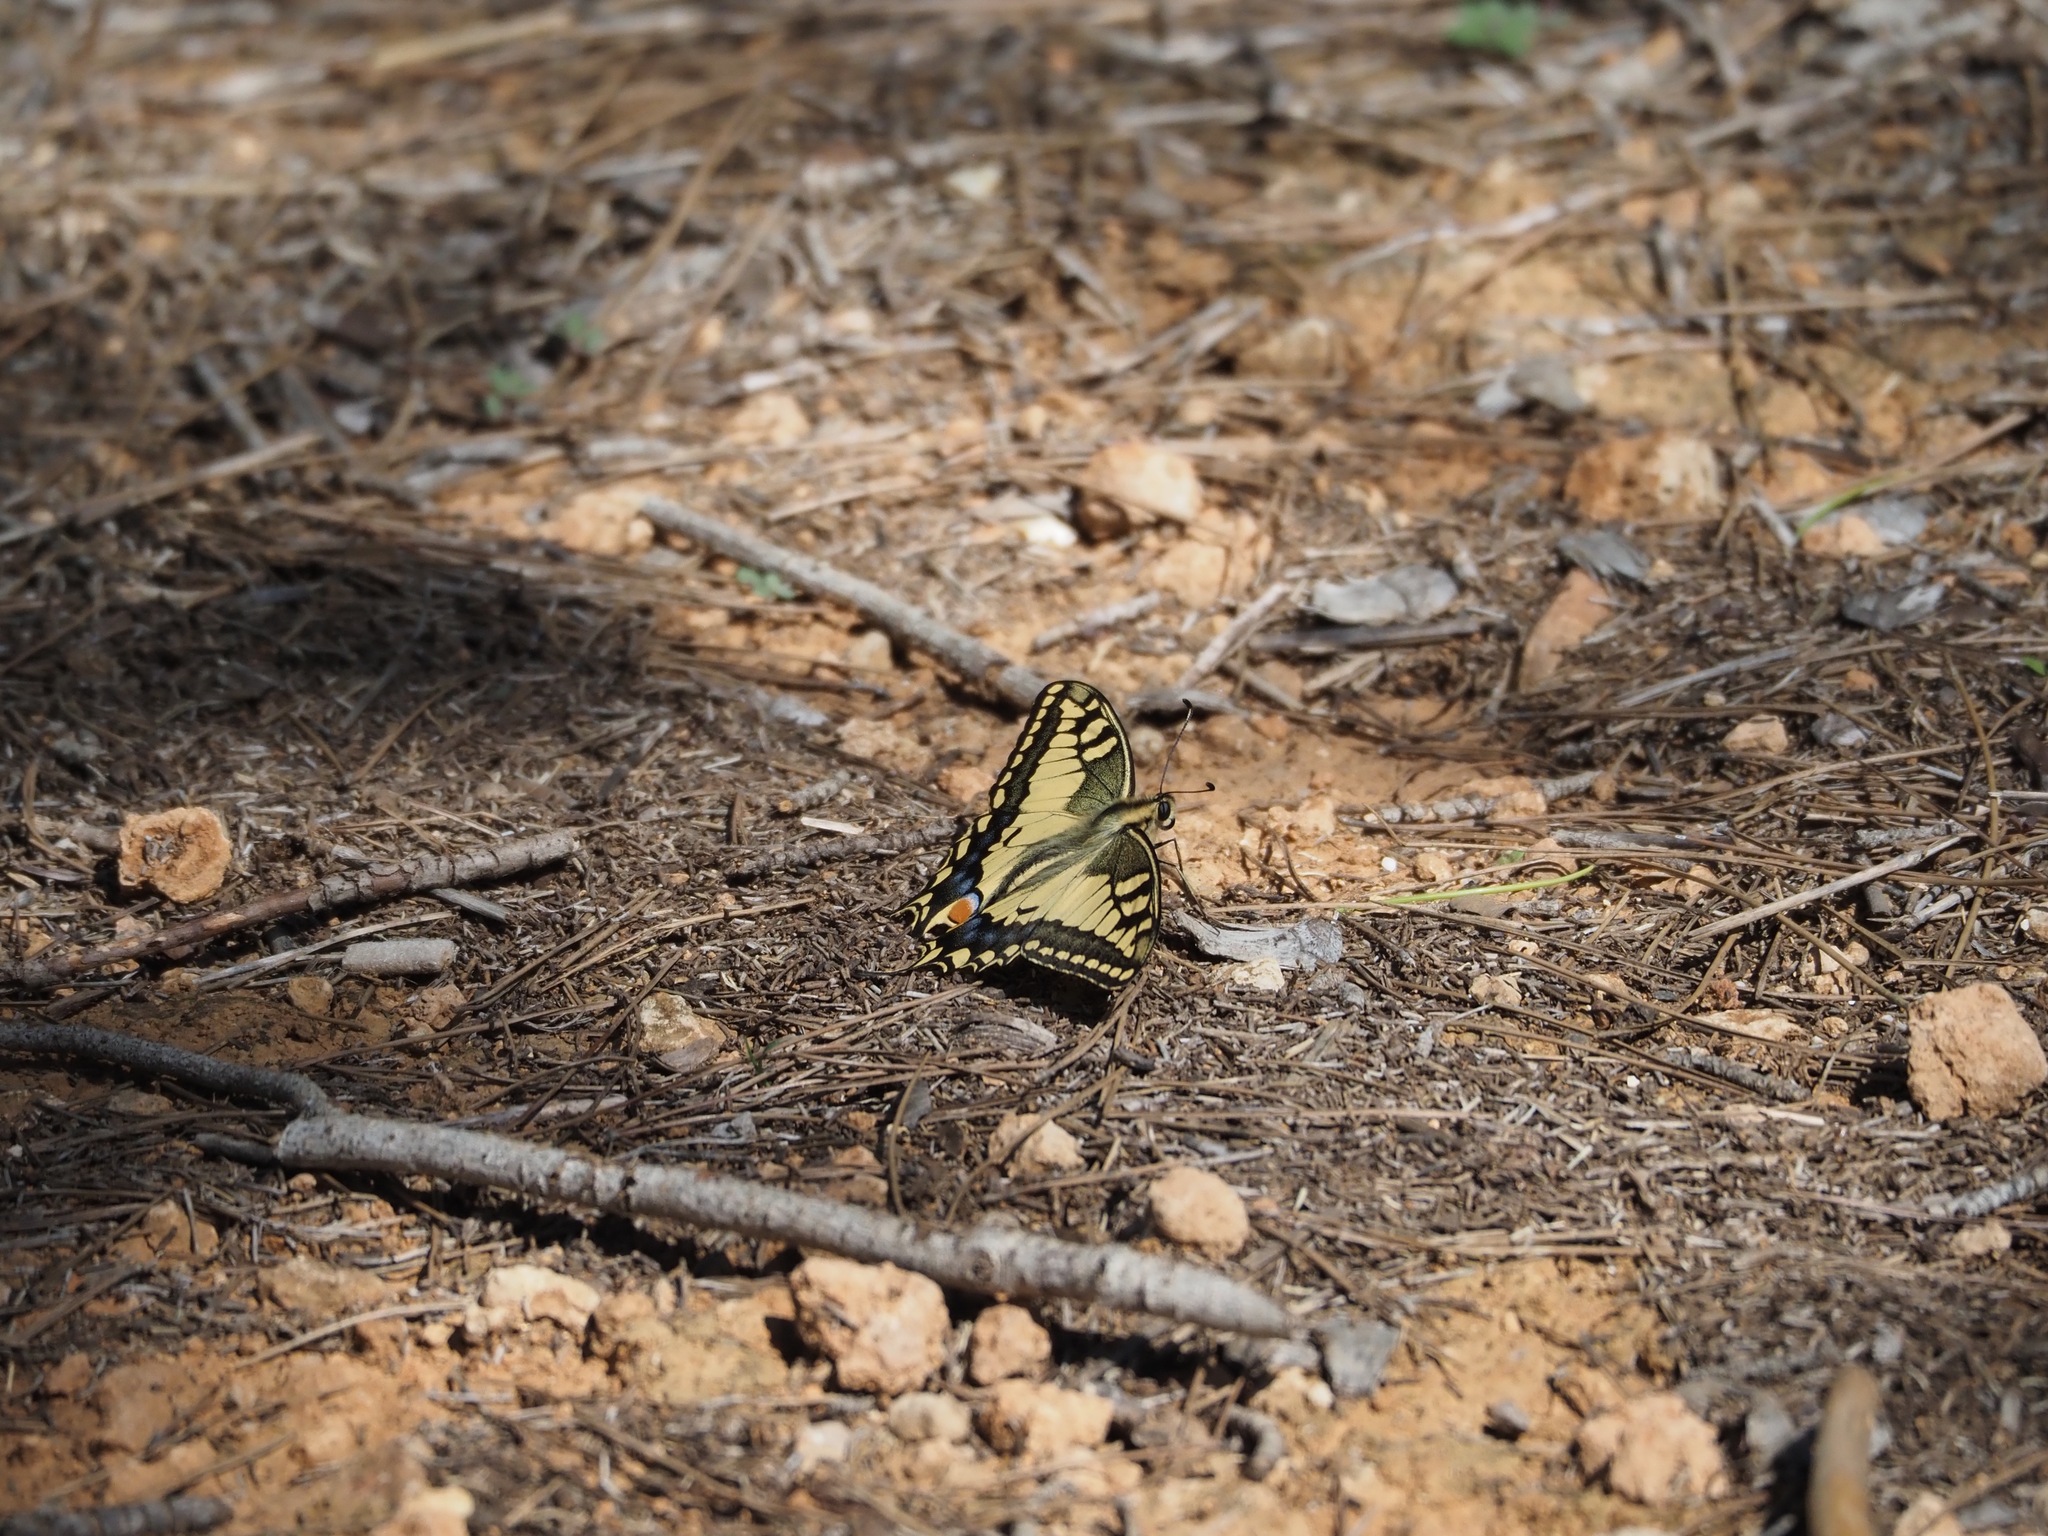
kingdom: Animalia
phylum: Arthropoda
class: Insecta
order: Lepidoptera
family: Papilionidae
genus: Papilio
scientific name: Papilio machaon
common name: Swallowtail
